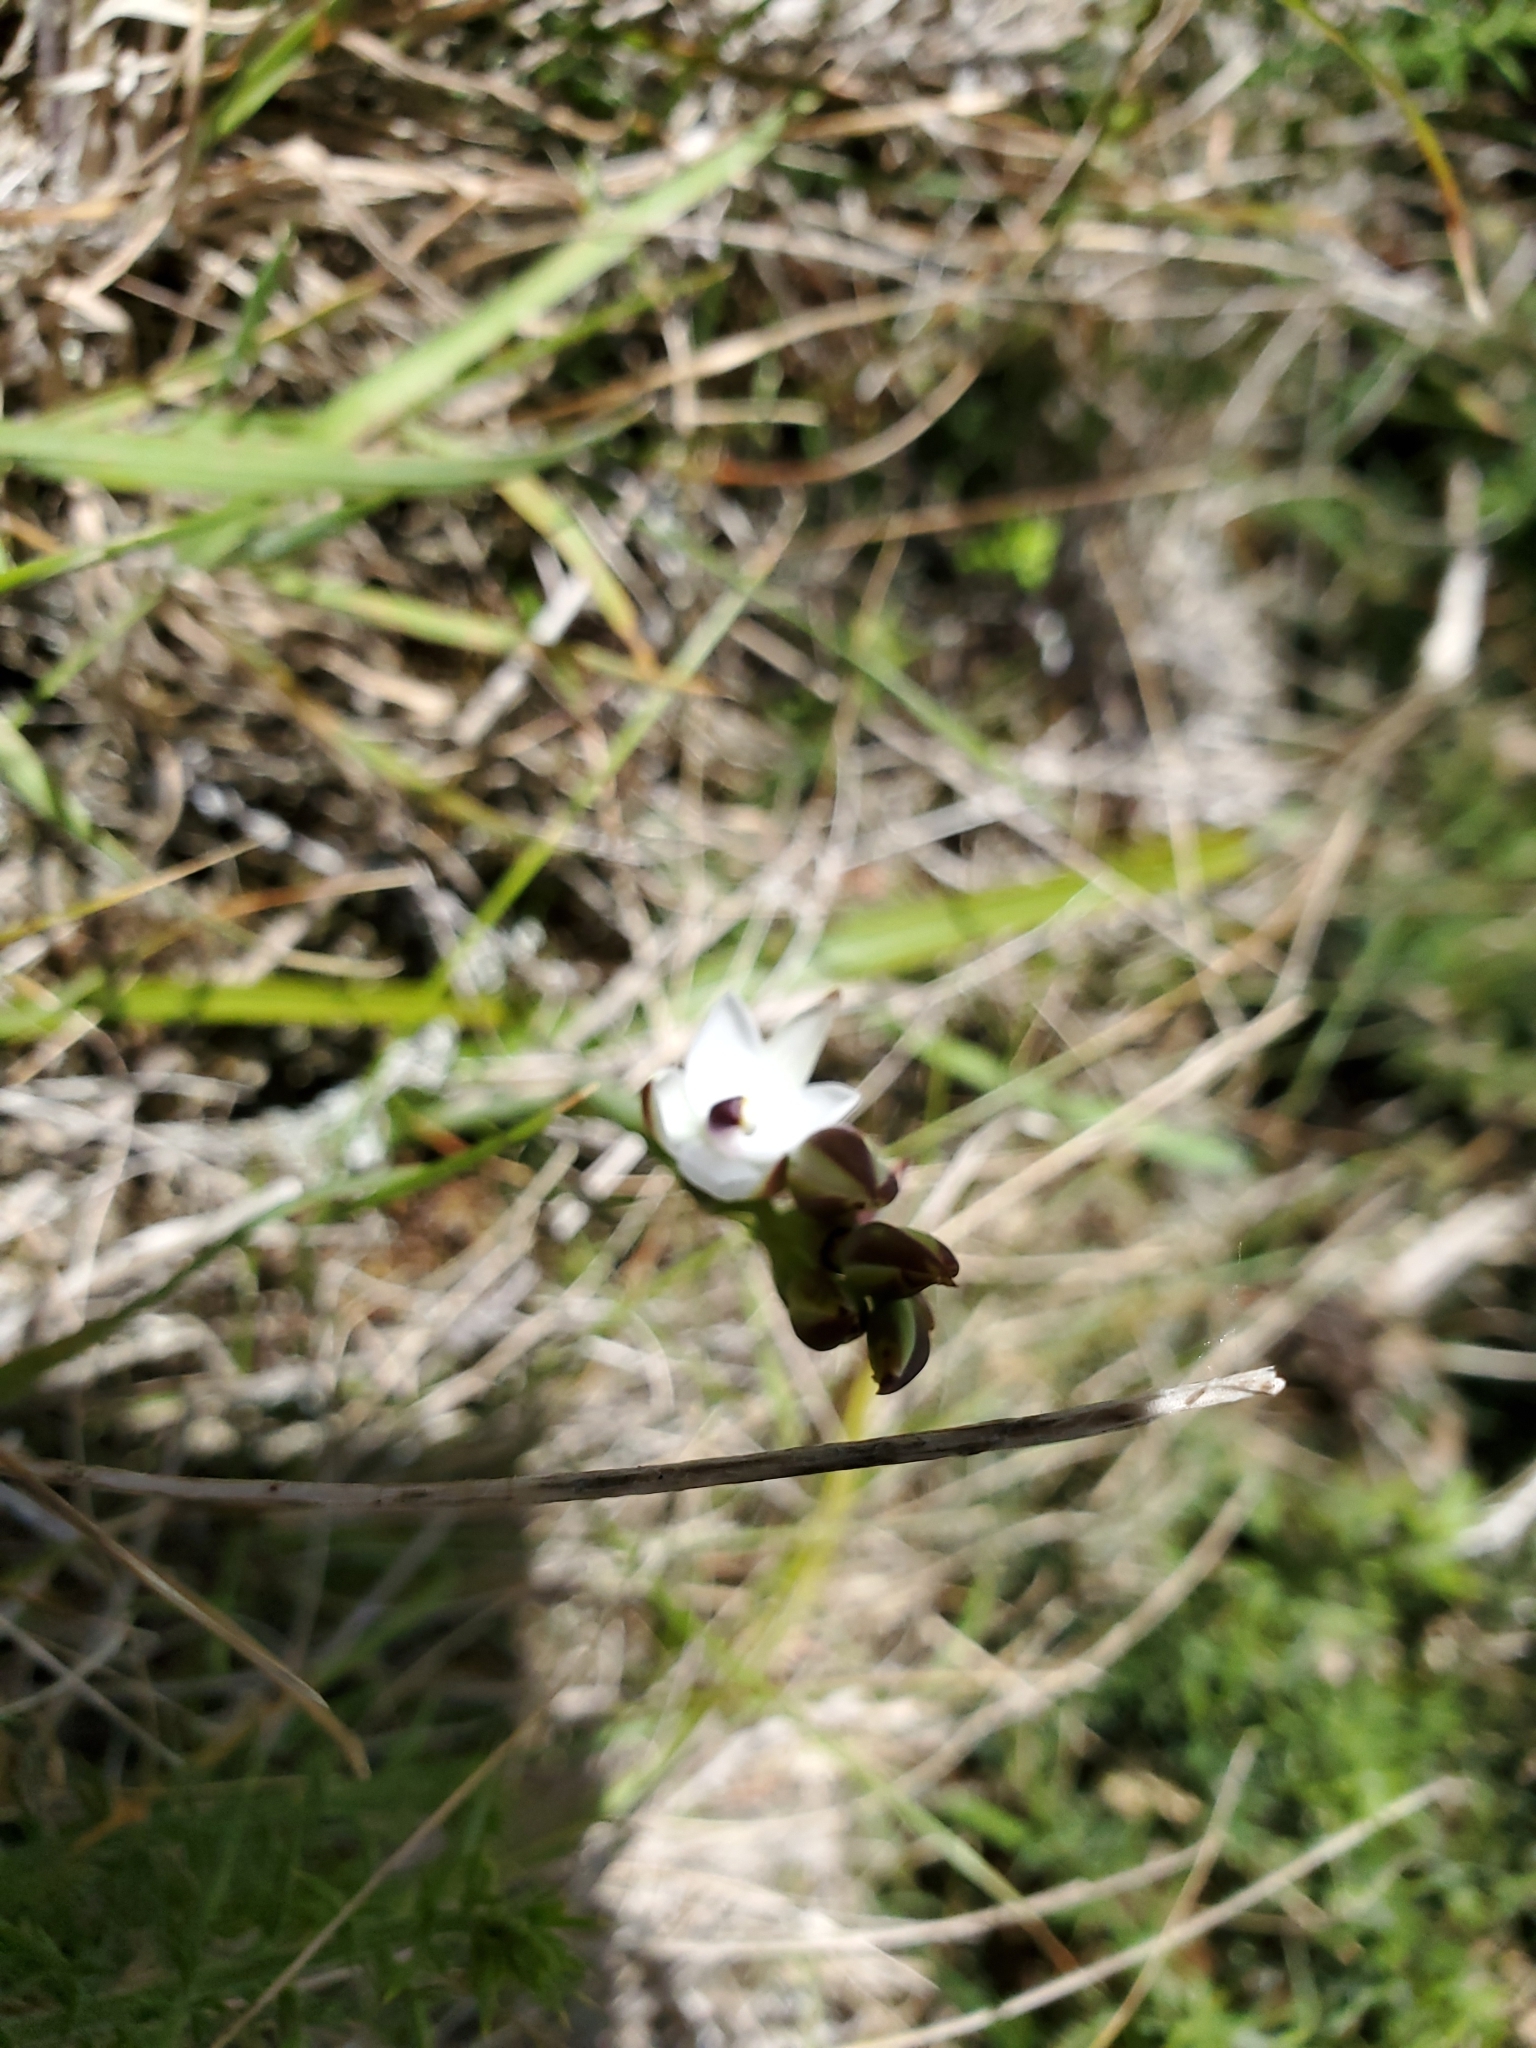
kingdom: Plantae
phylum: Tracheophyta
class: Liliopsida
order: Asparagales
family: Orchidaceae
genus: Thelymitra
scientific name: Thelymitra longifolia
